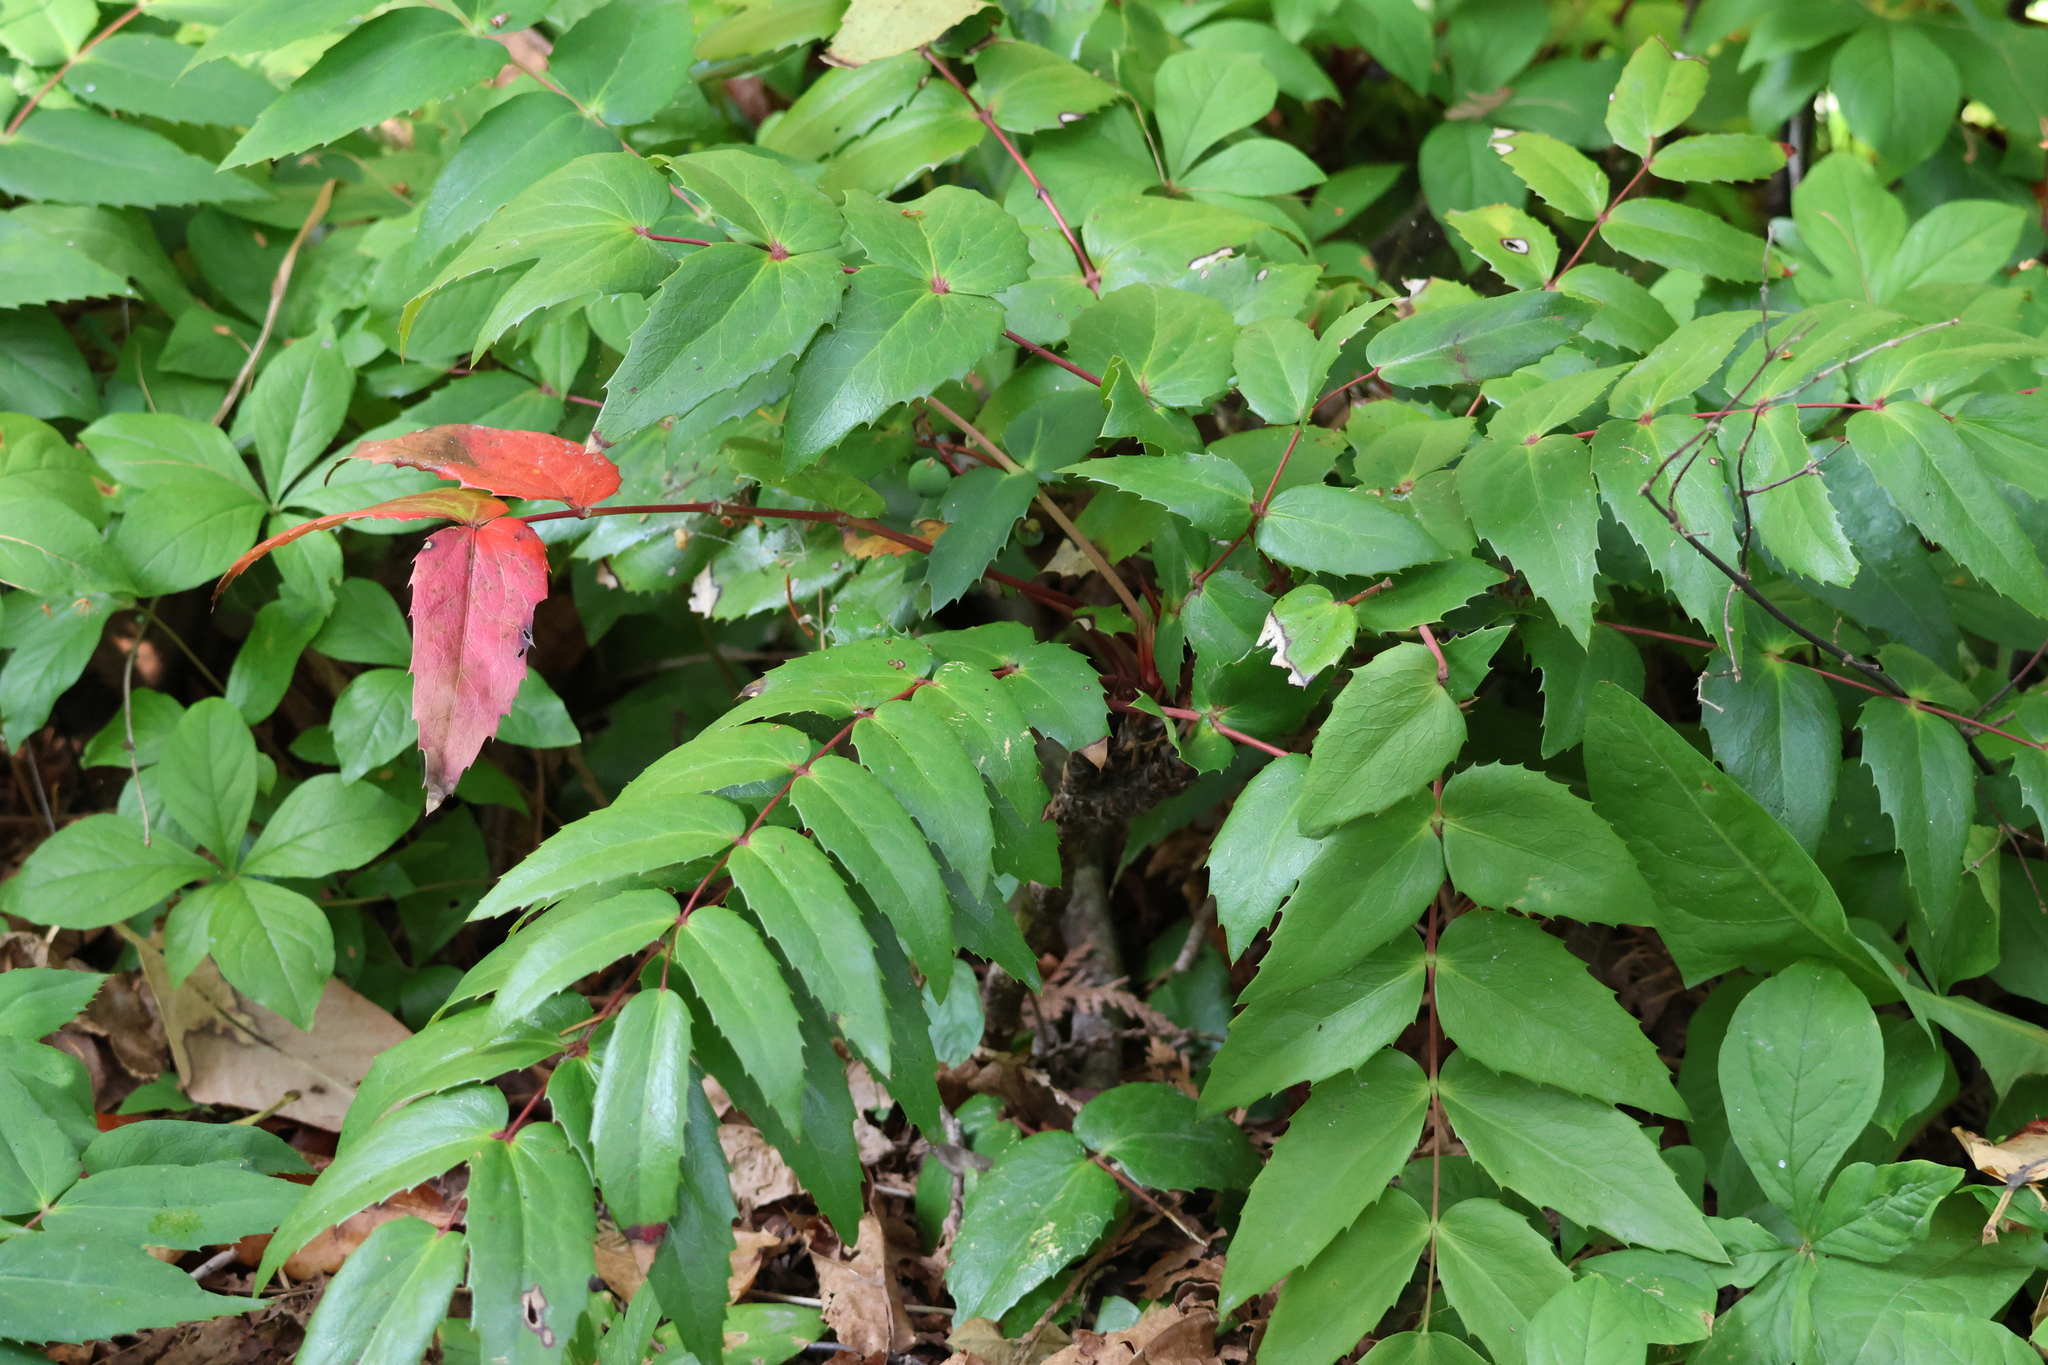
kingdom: Plantae
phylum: Tracheophyta
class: Magnoliopsida
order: Ranunculales
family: Berberidaceae
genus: Mahonia
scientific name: Mahonia nervosa
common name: Cascade oregon-grape
